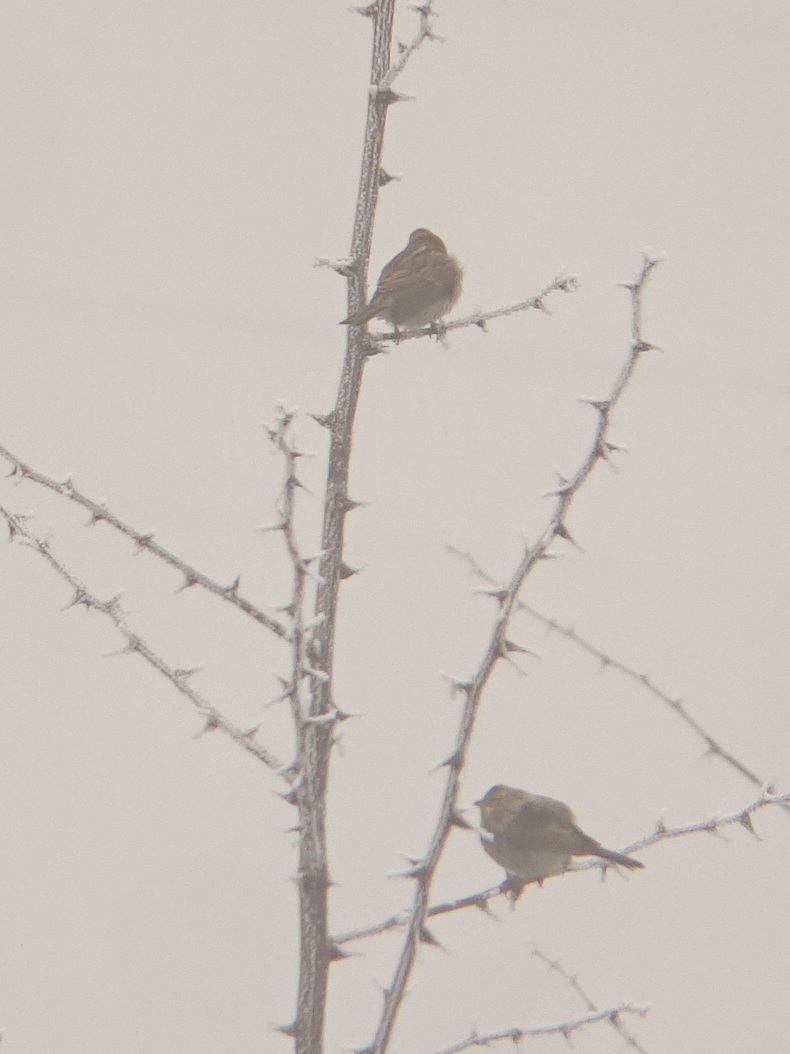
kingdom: Animalia
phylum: Chordata
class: Aves
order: Passeriformes
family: Emberizidae
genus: Emberiza
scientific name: Emberiza schoeniclus
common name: Reed bunting
